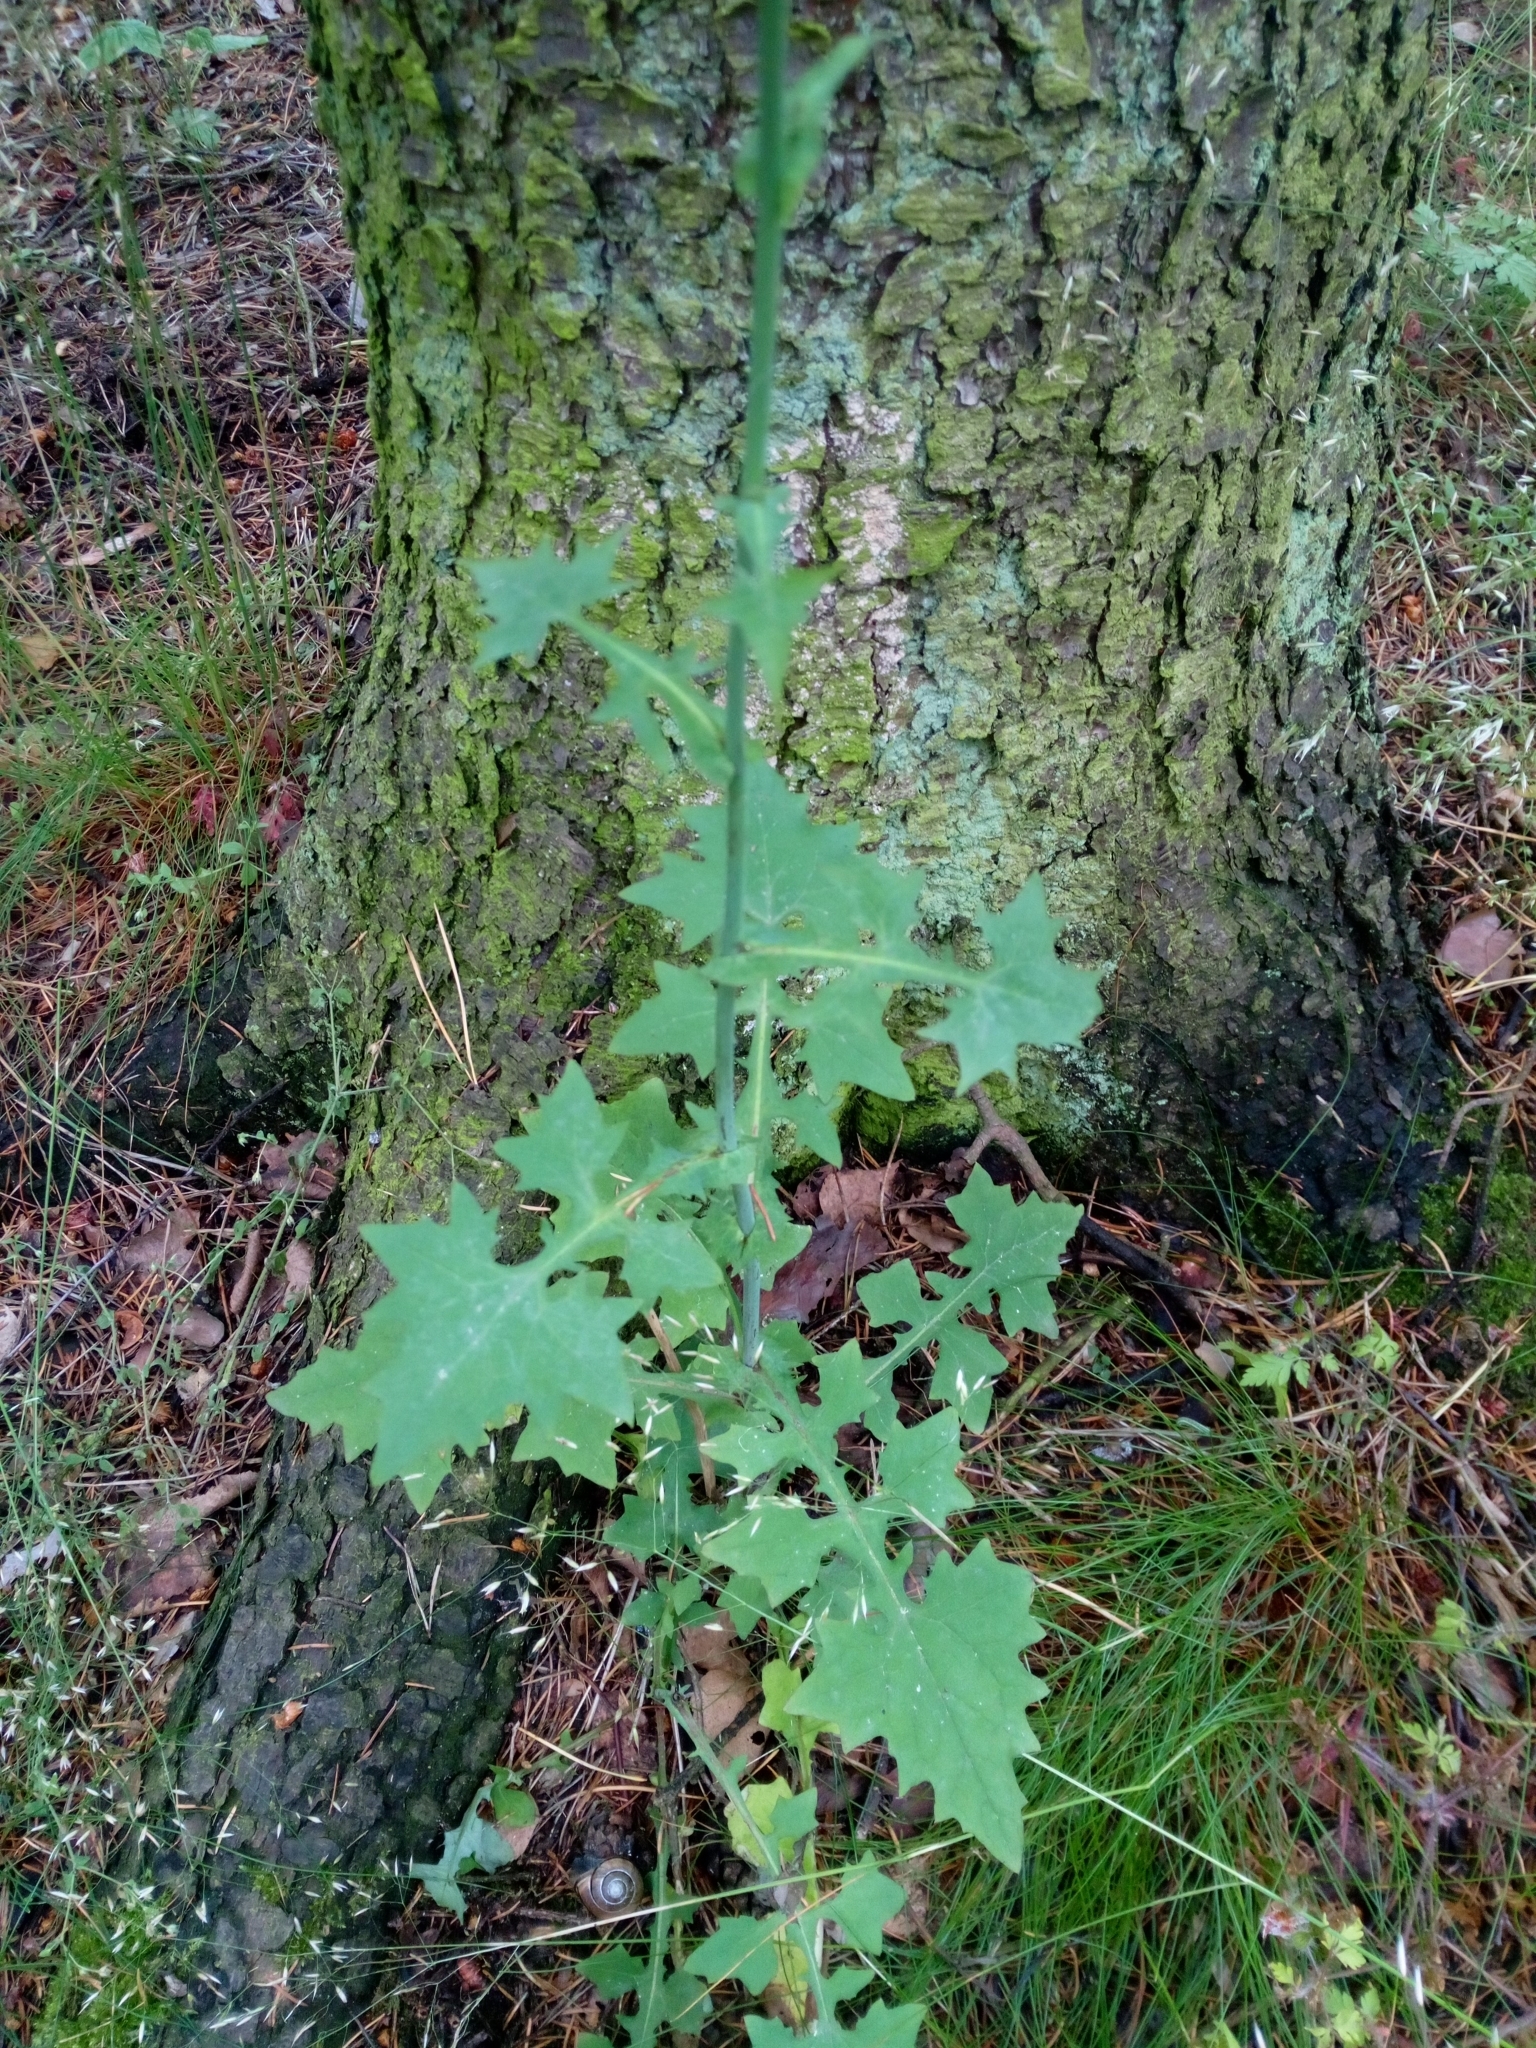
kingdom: Plantae
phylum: Tracheophyta
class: Magnoliopsida
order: Asterales
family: Asteraceae
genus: Mycelis
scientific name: Mycelis muralis
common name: Wall lettuce
